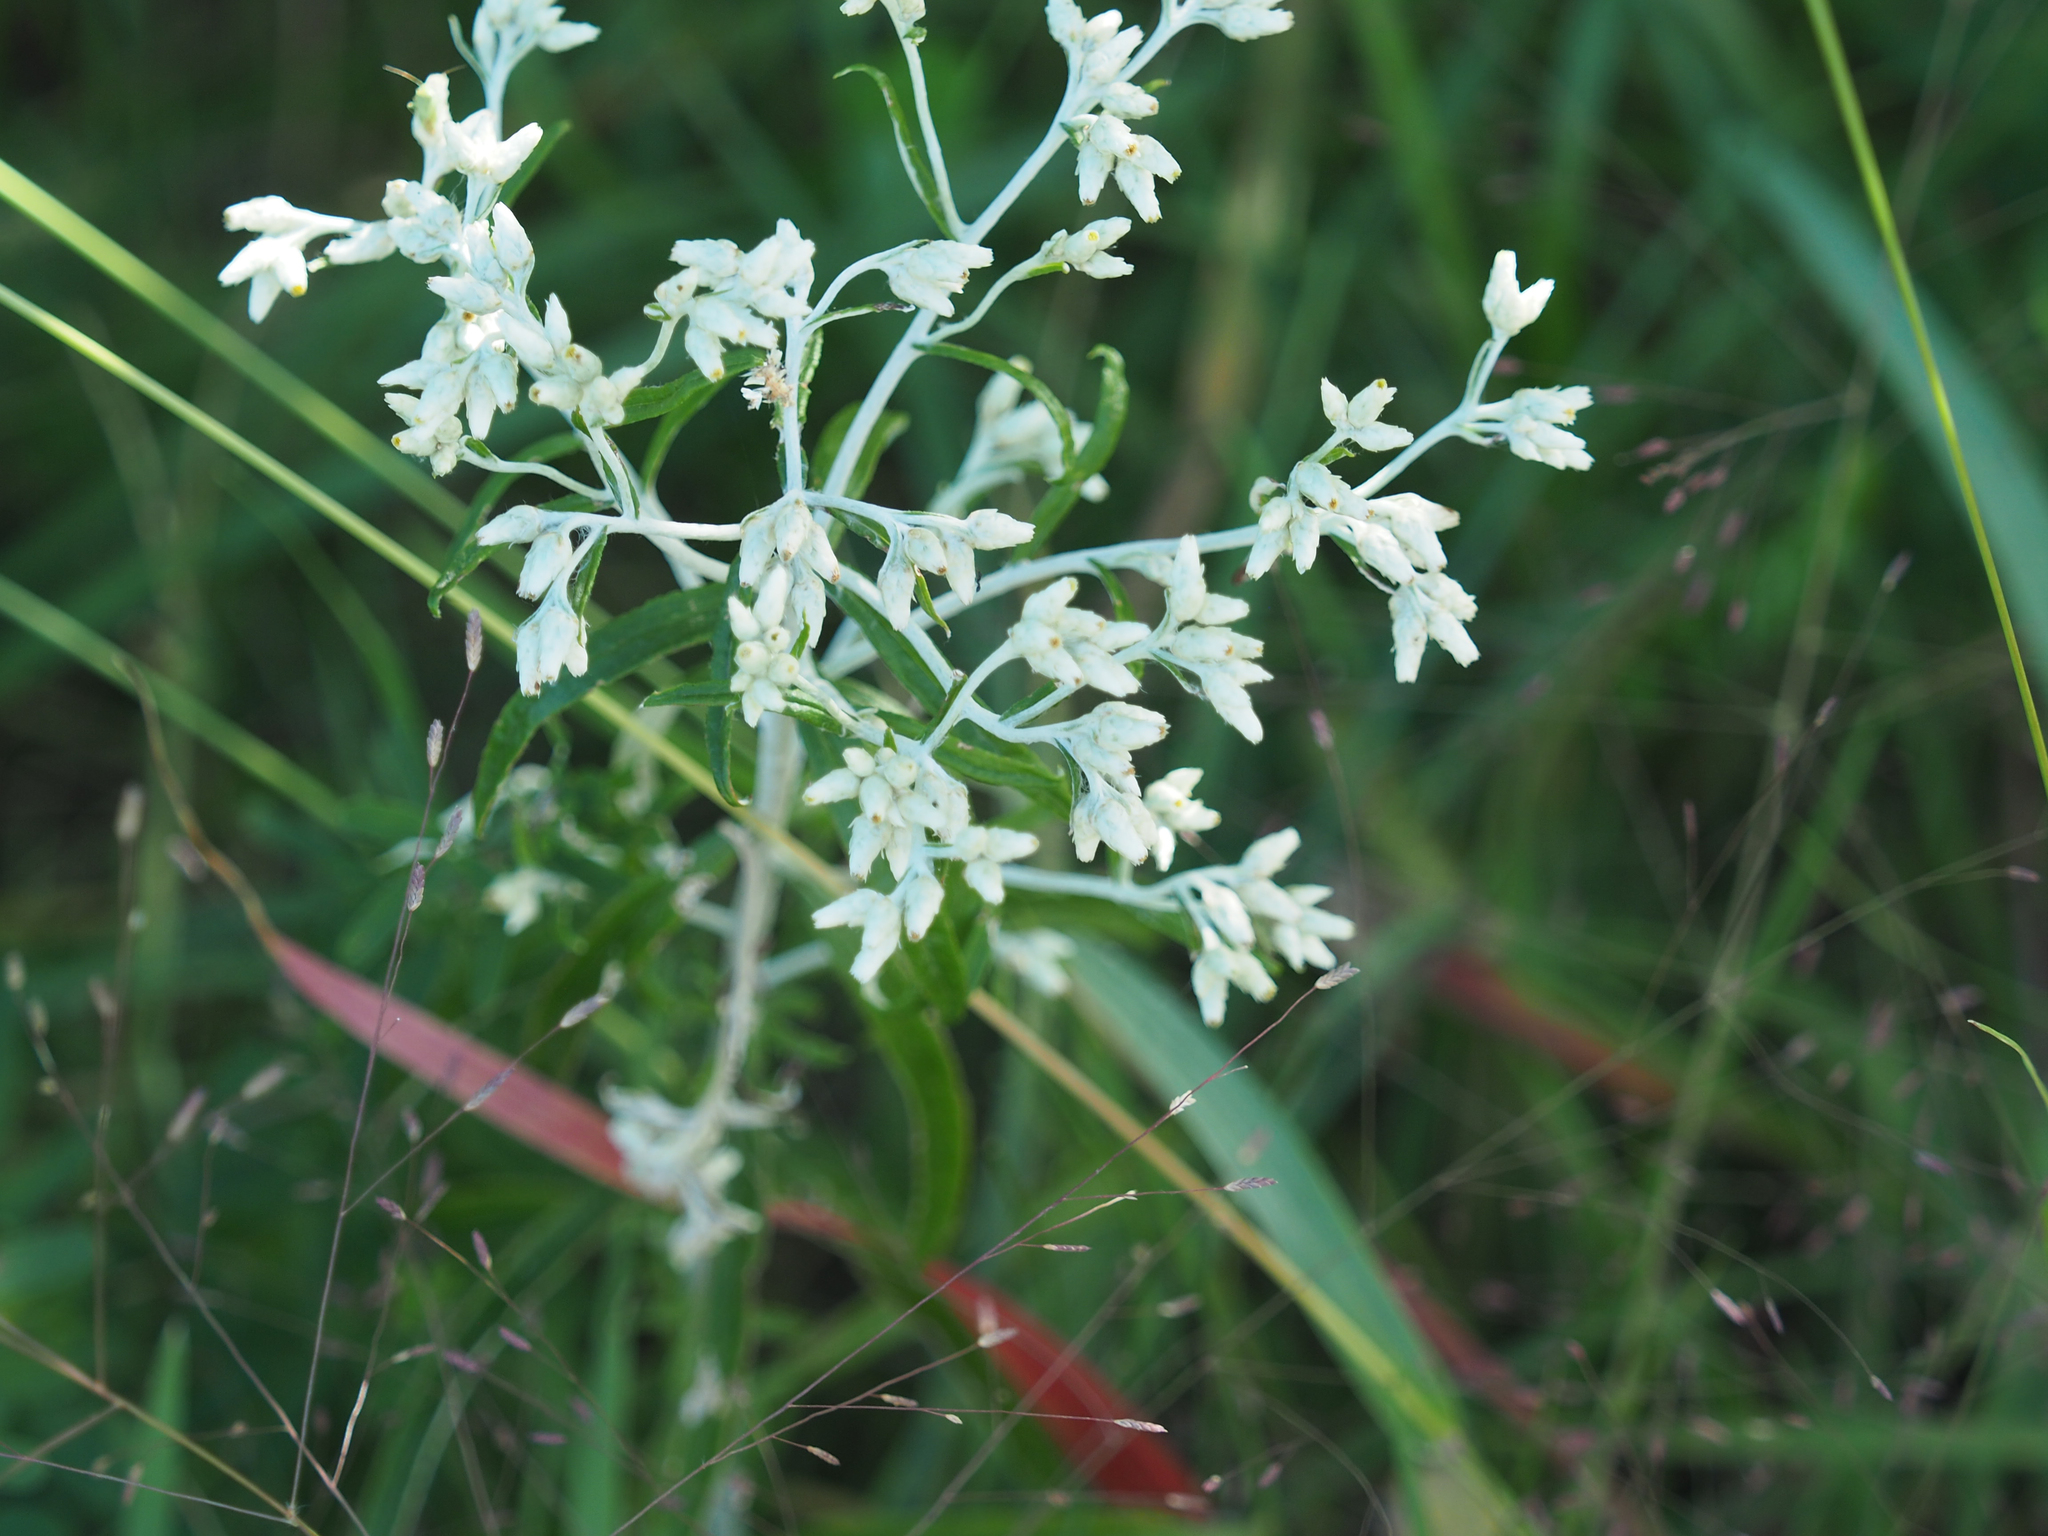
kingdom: Plantae
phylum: Tracheophyta
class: Magnoliopsida
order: Asterales
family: Asteraceae
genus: Pseudognaphalium
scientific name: Pseudognaphalium obtusifolium
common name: Eastern rabbit-tobacco
